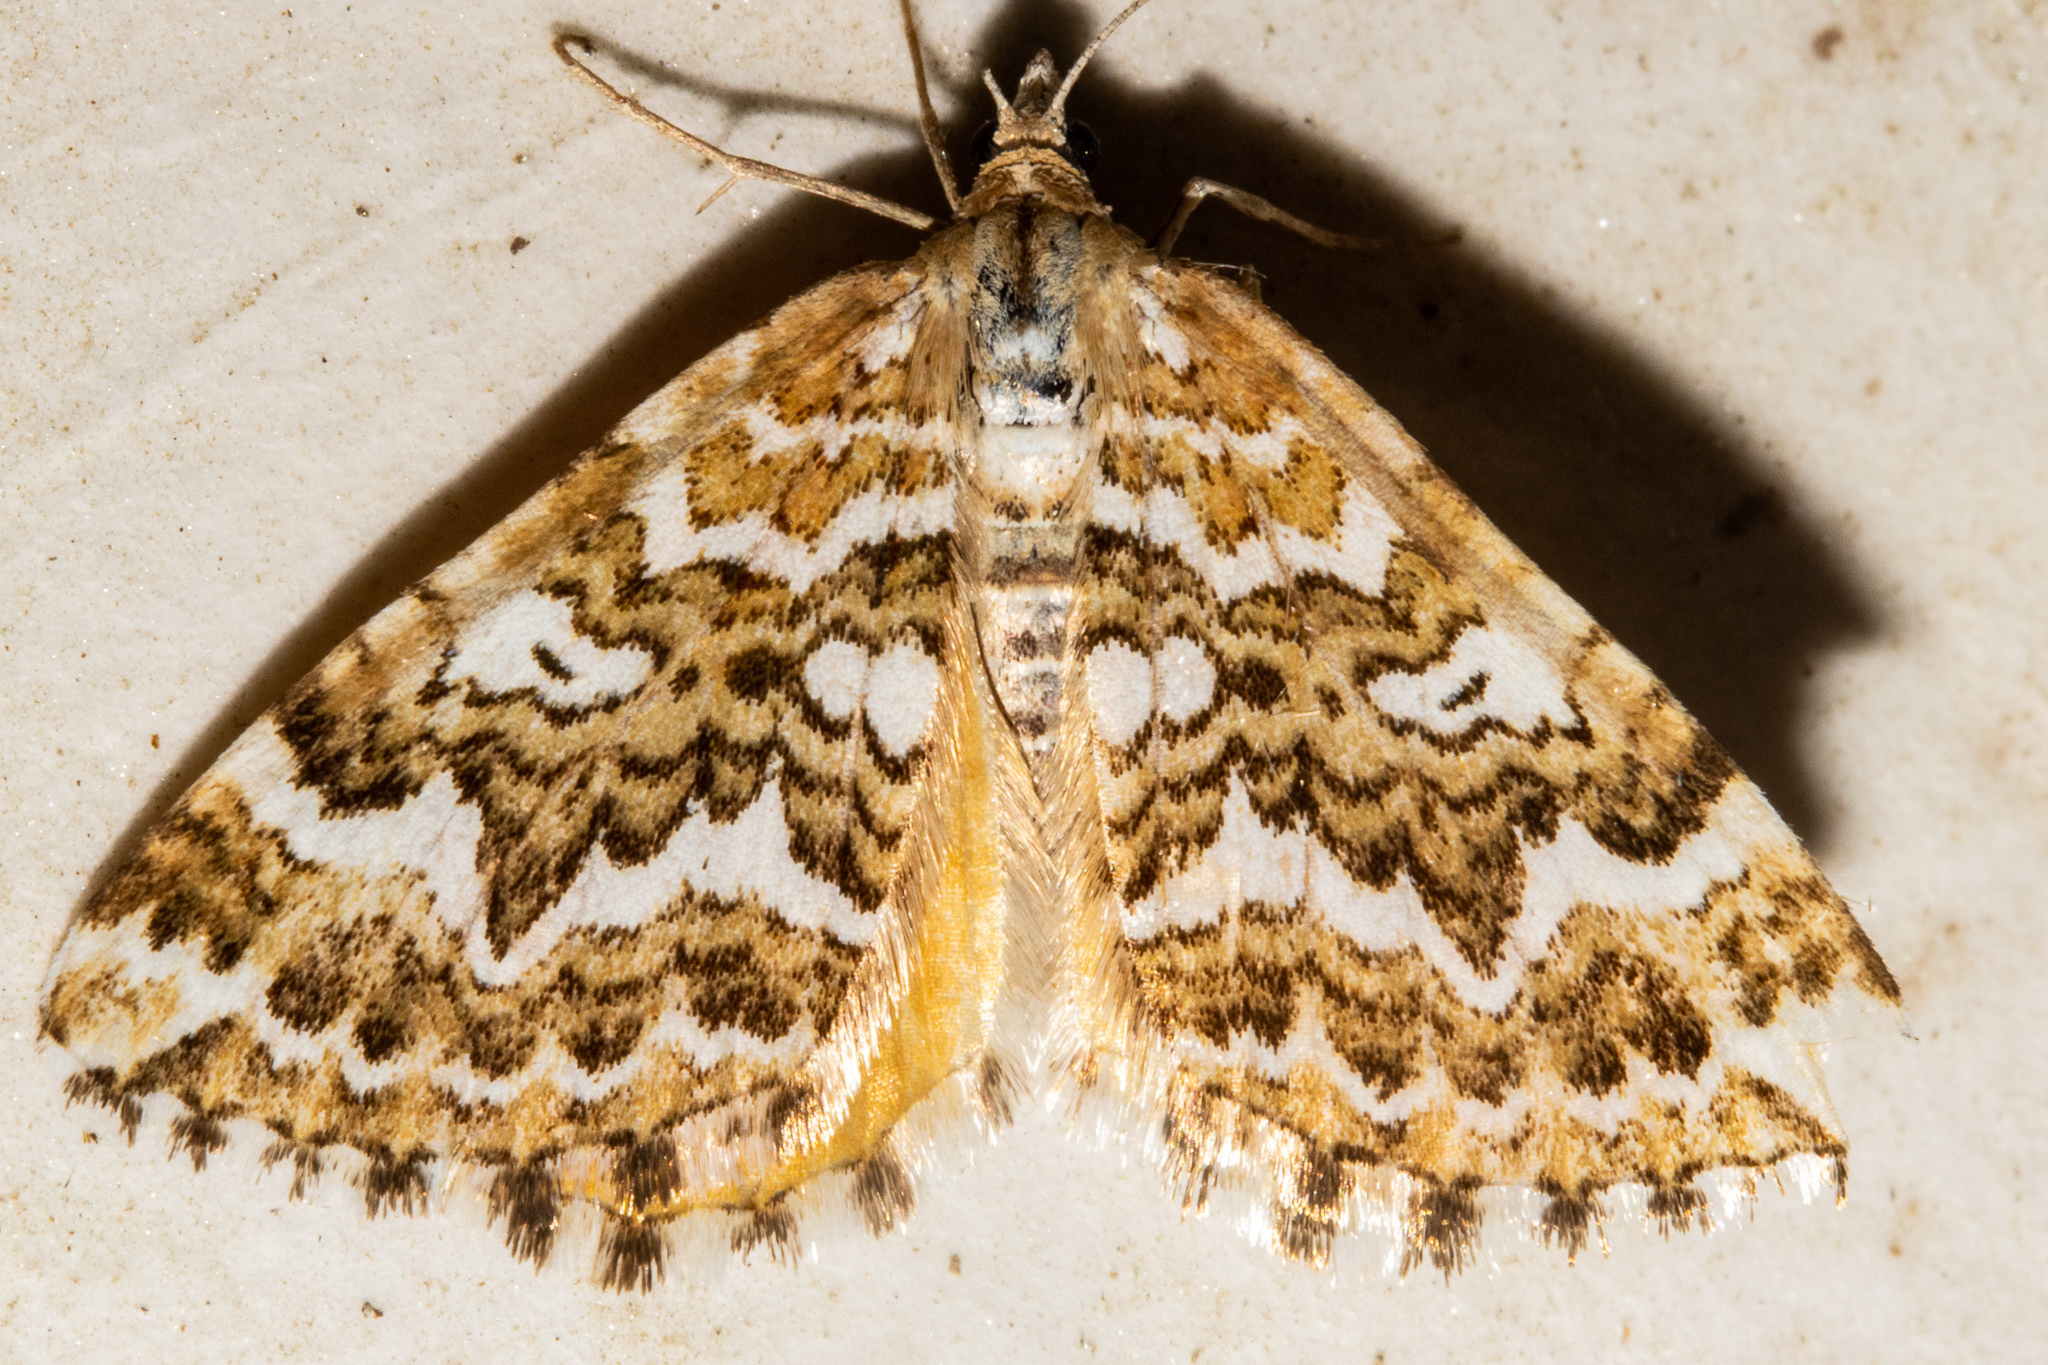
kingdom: Animalia
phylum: Arthropoda
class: Insecta
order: Lepidoptera
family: Geometridae
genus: Asaphodes
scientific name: Asaphodes clarata
